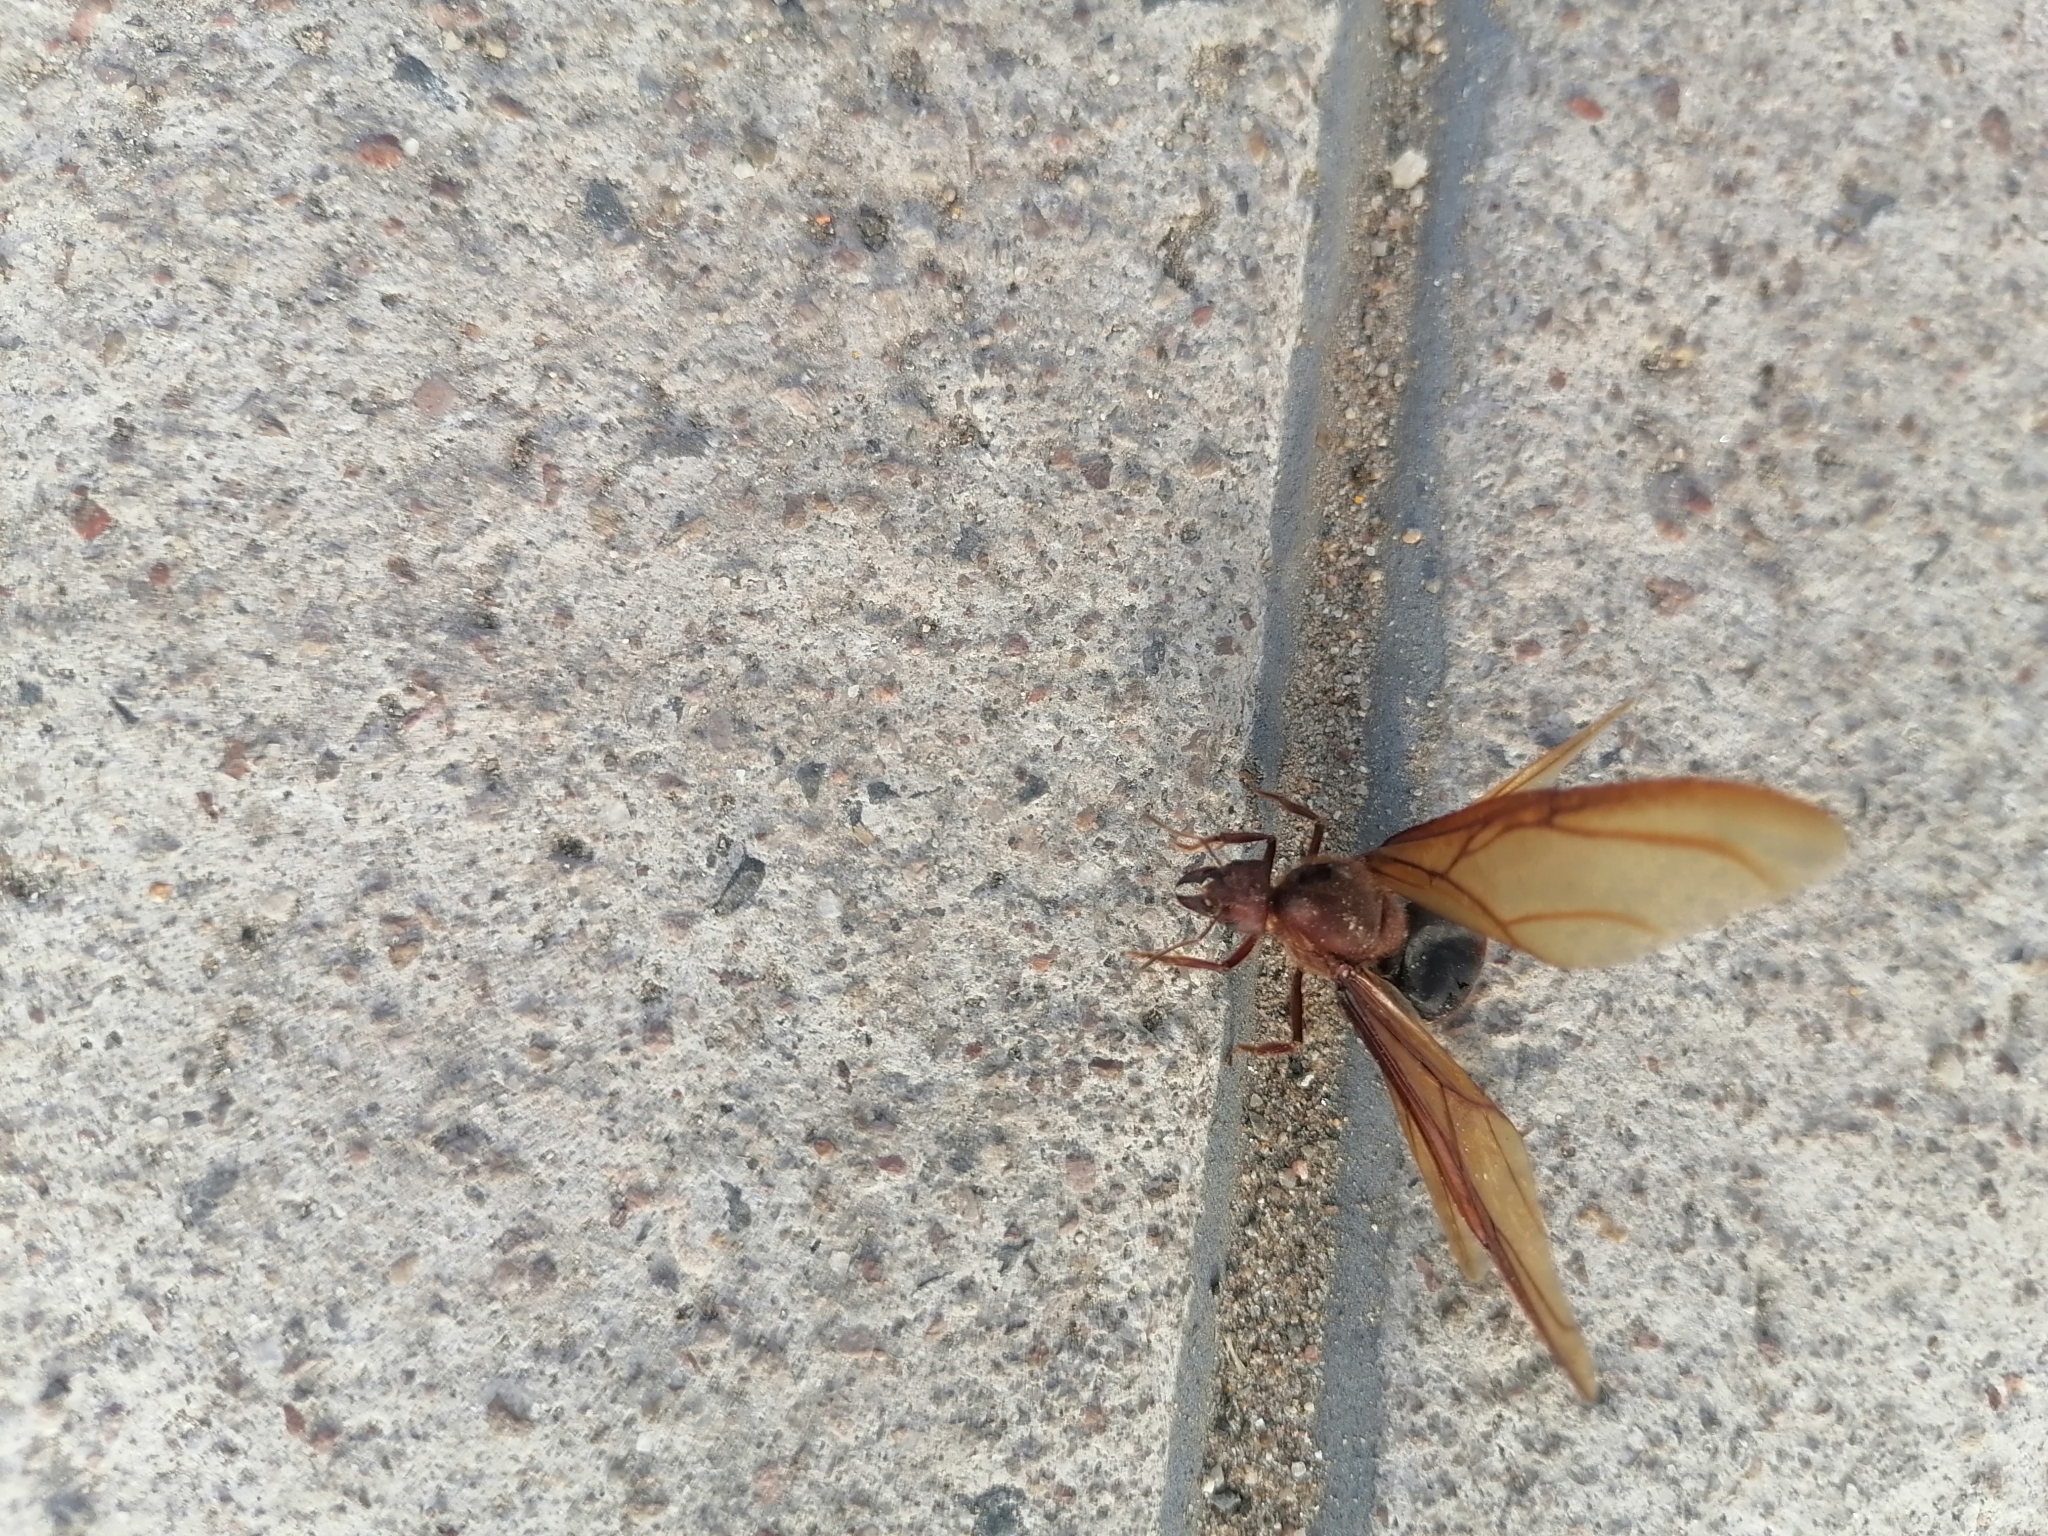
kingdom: Animalia
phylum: Arthropoda
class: Insecta
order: Hymenoptera
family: Formicidae
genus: Atta
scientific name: Atta mexicana
